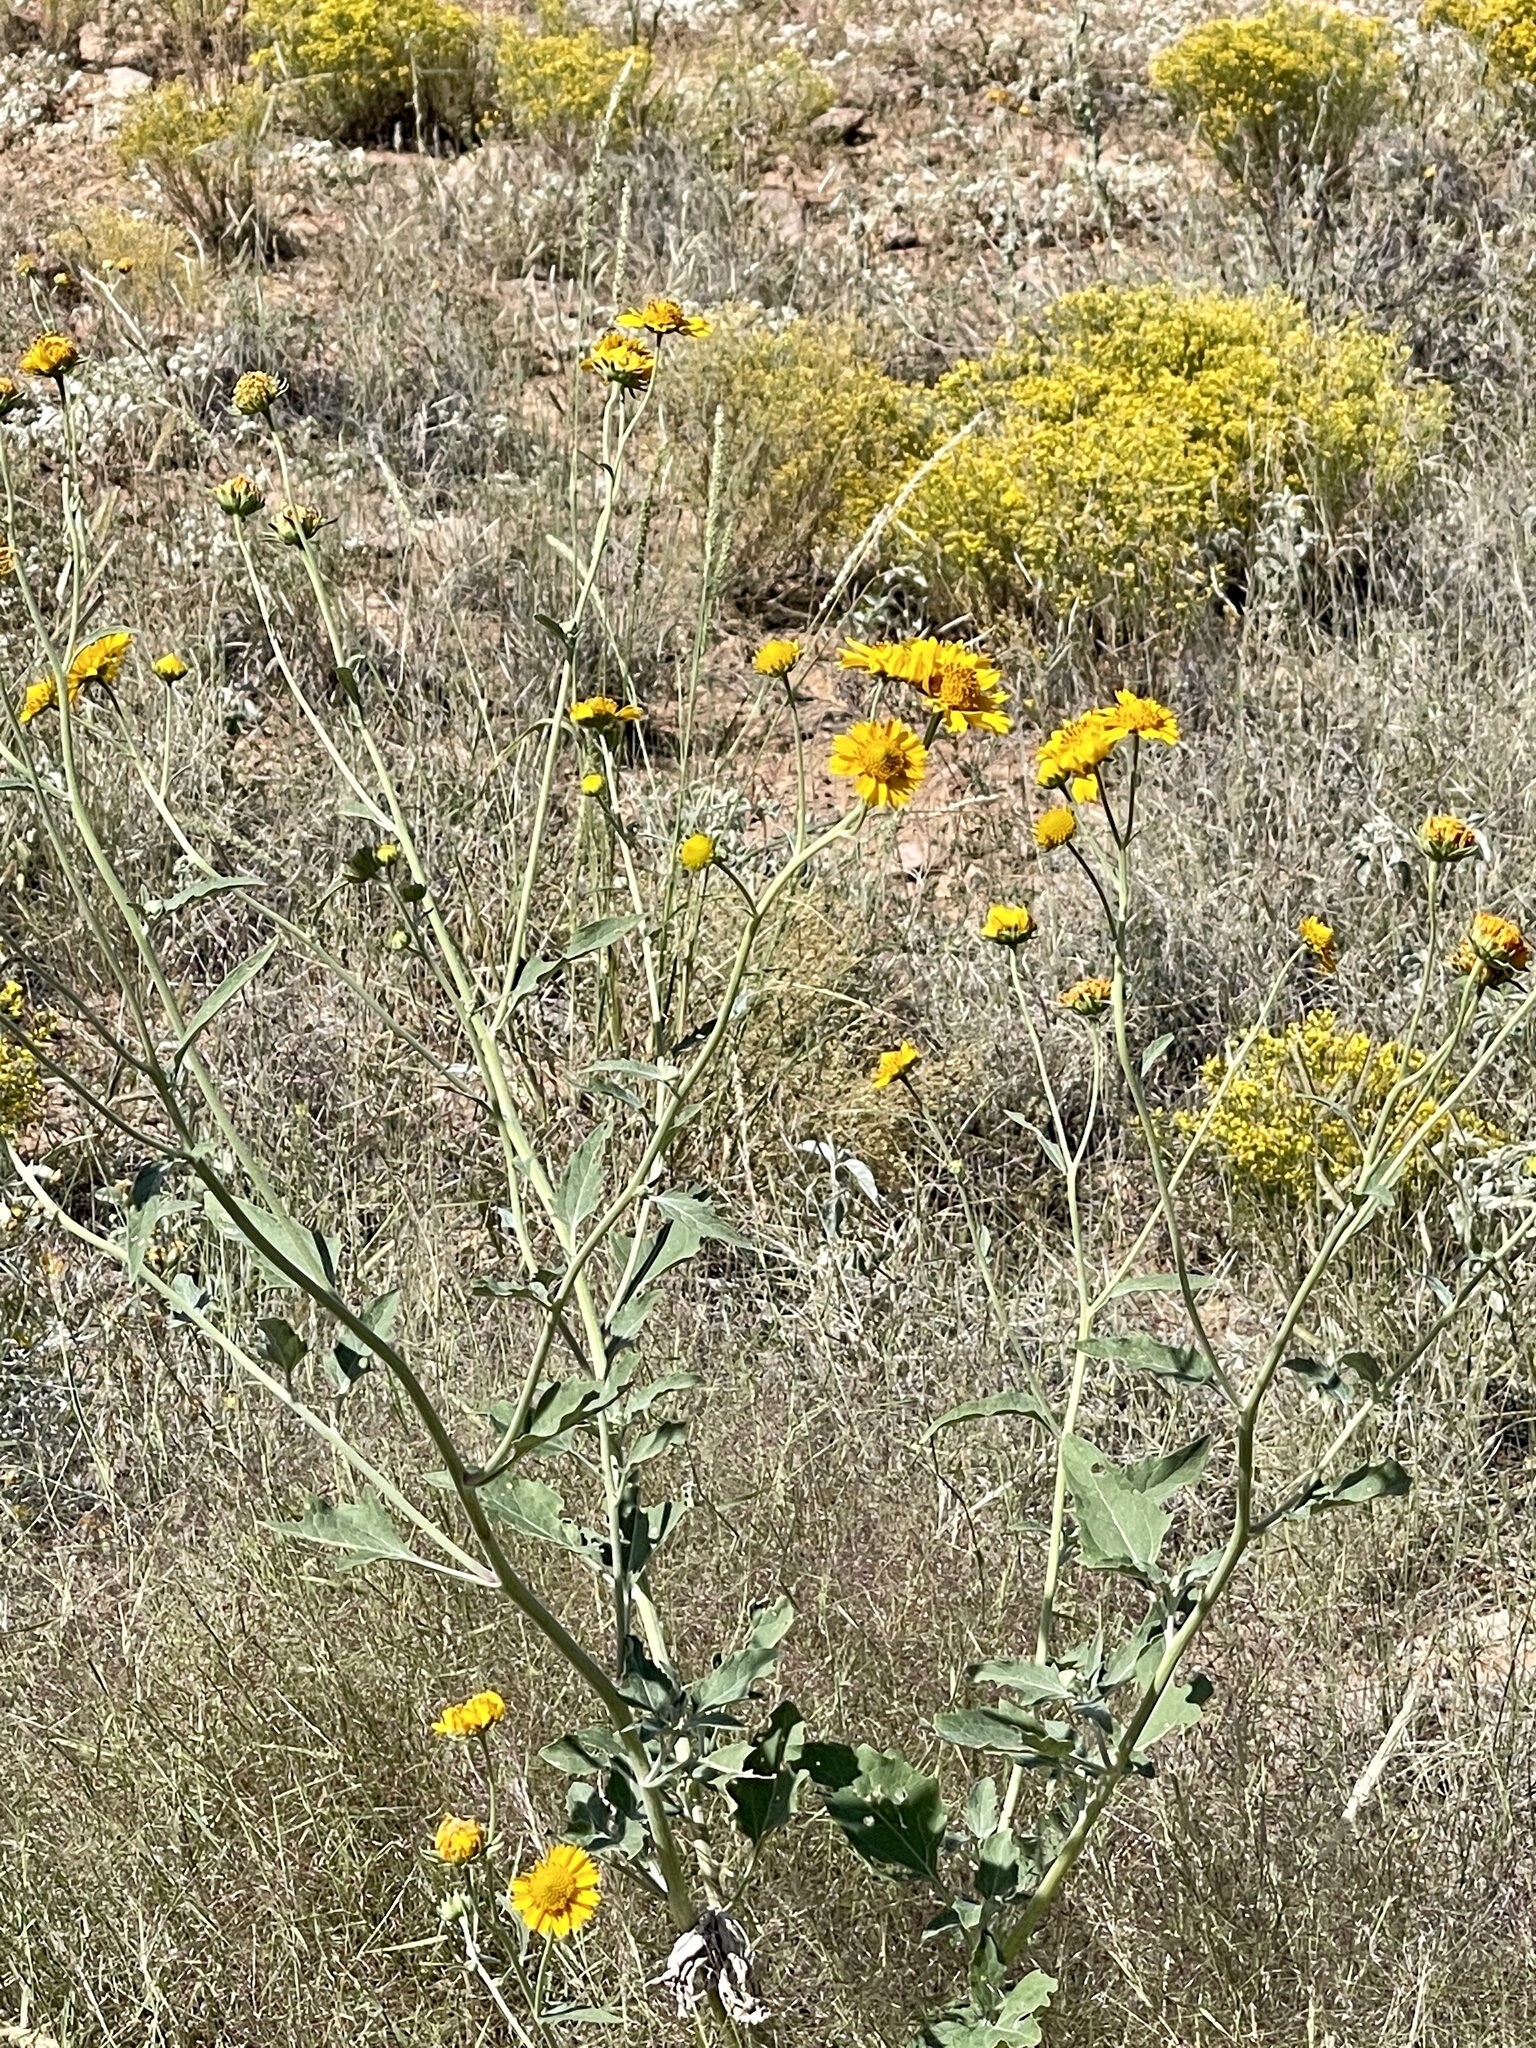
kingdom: Plantae
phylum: Tracheophyta
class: Magnoliopsida
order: Asterales
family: Asteraceae
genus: Verbesina
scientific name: Verbesina encelioides
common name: Golden crownbeard
